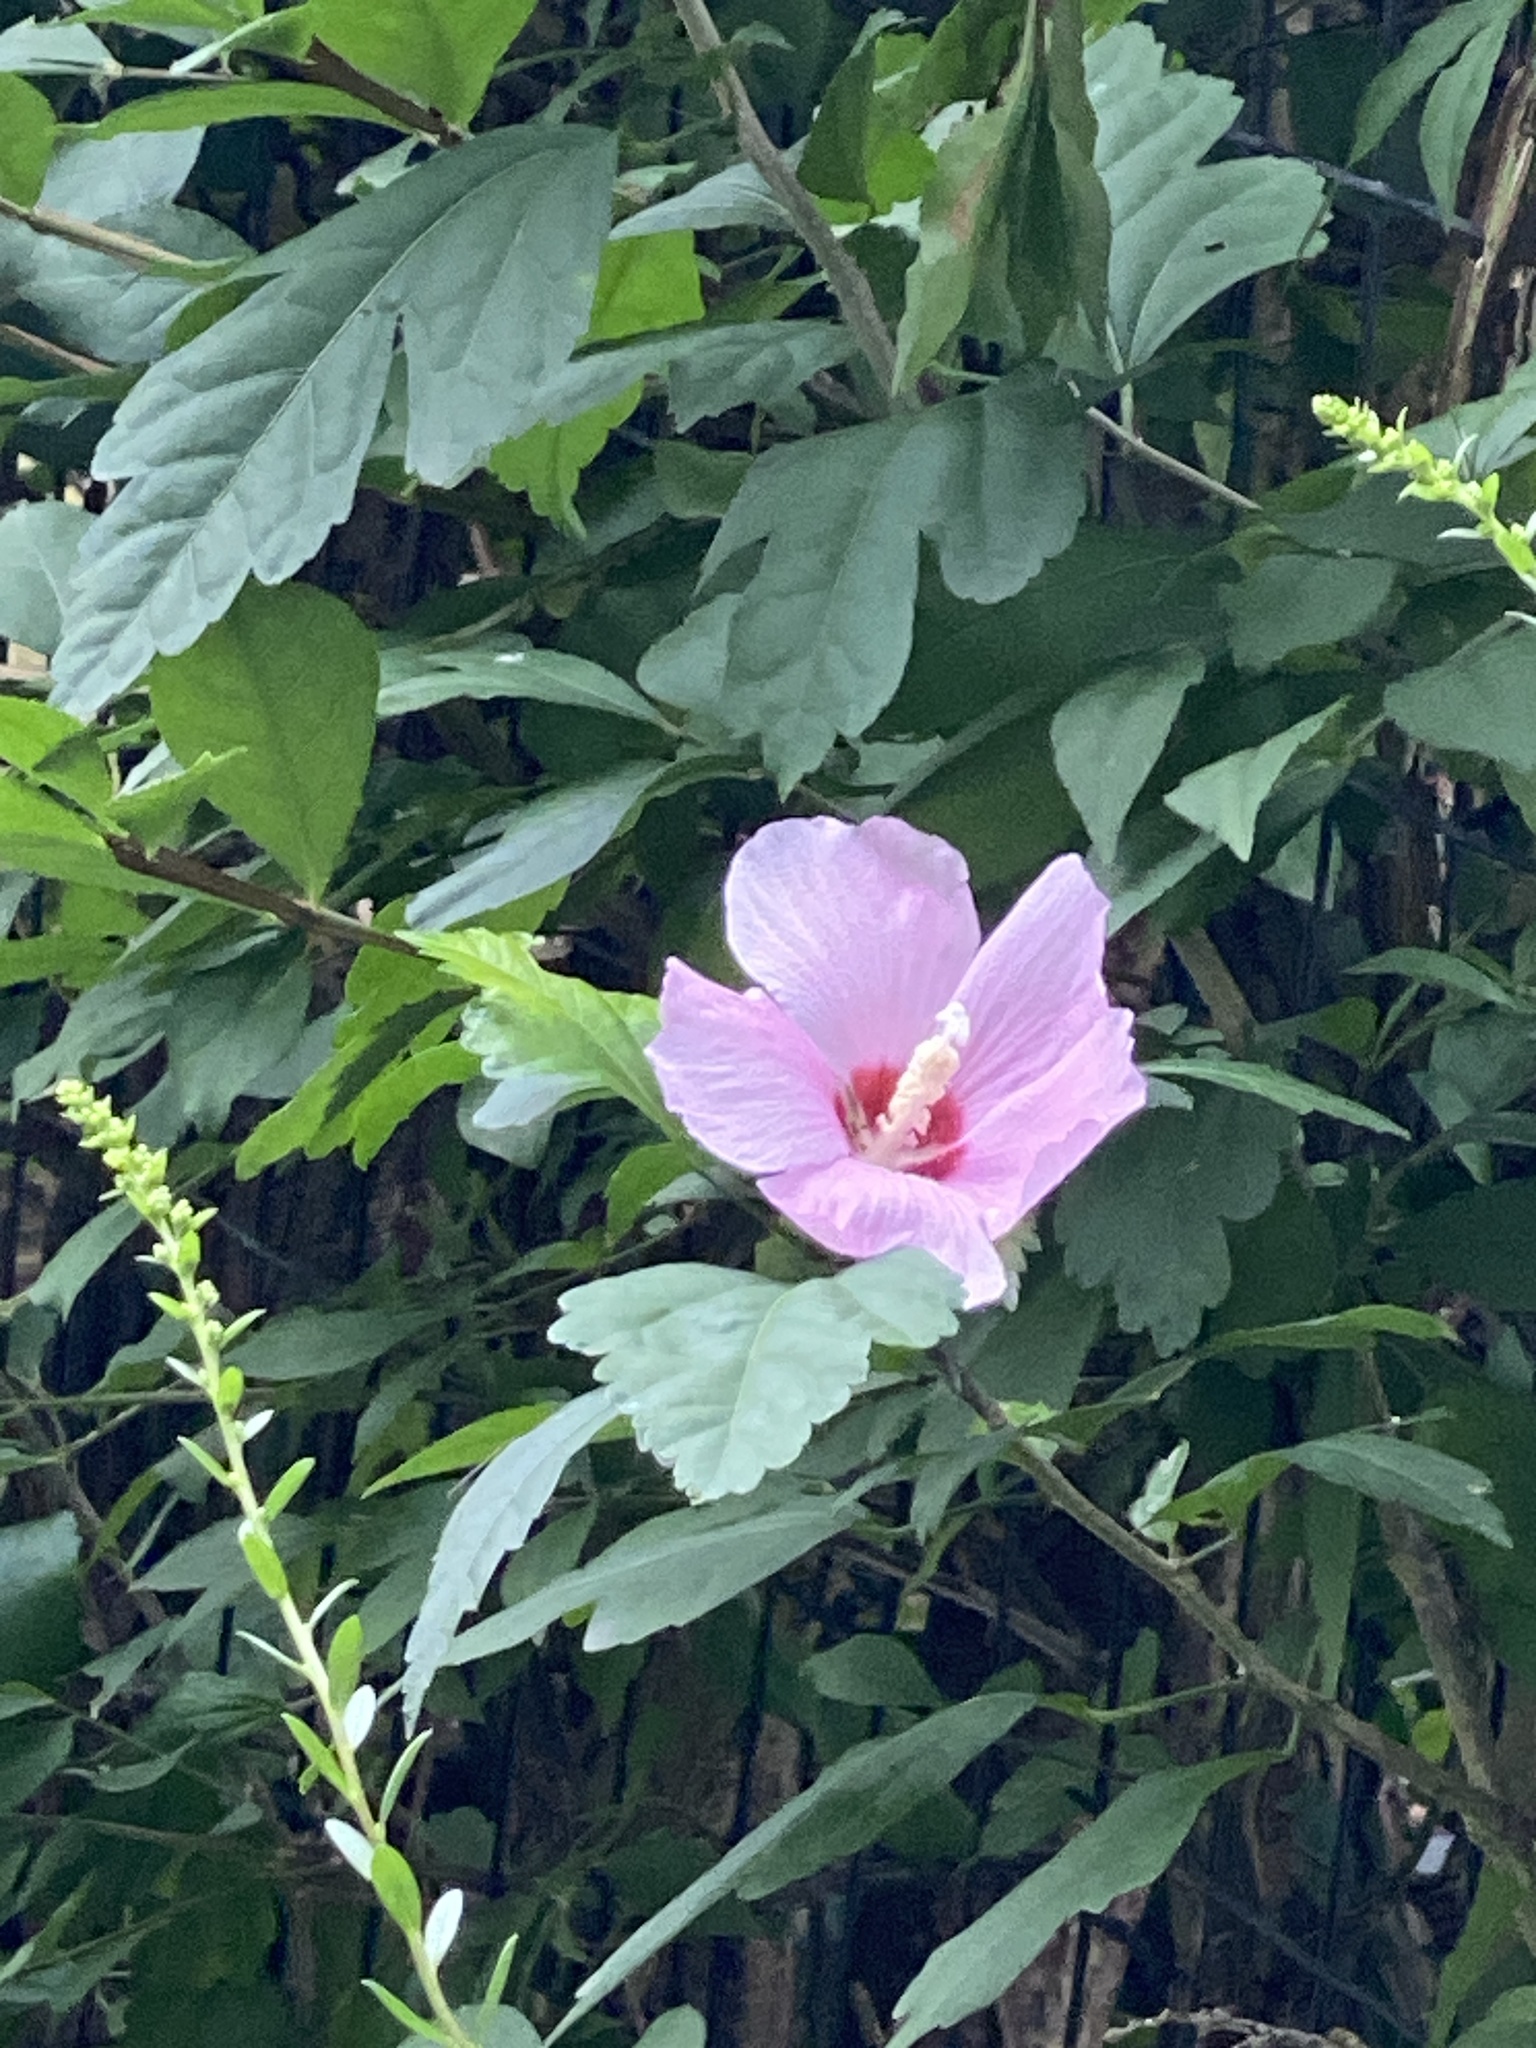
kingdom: Plantae
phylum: Tracheophyta
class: Magnoliopsida
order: Malvales
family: Malvaceae
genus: Hibiscus
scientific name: Hibiscus syriacus
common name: Syrian ketmia
